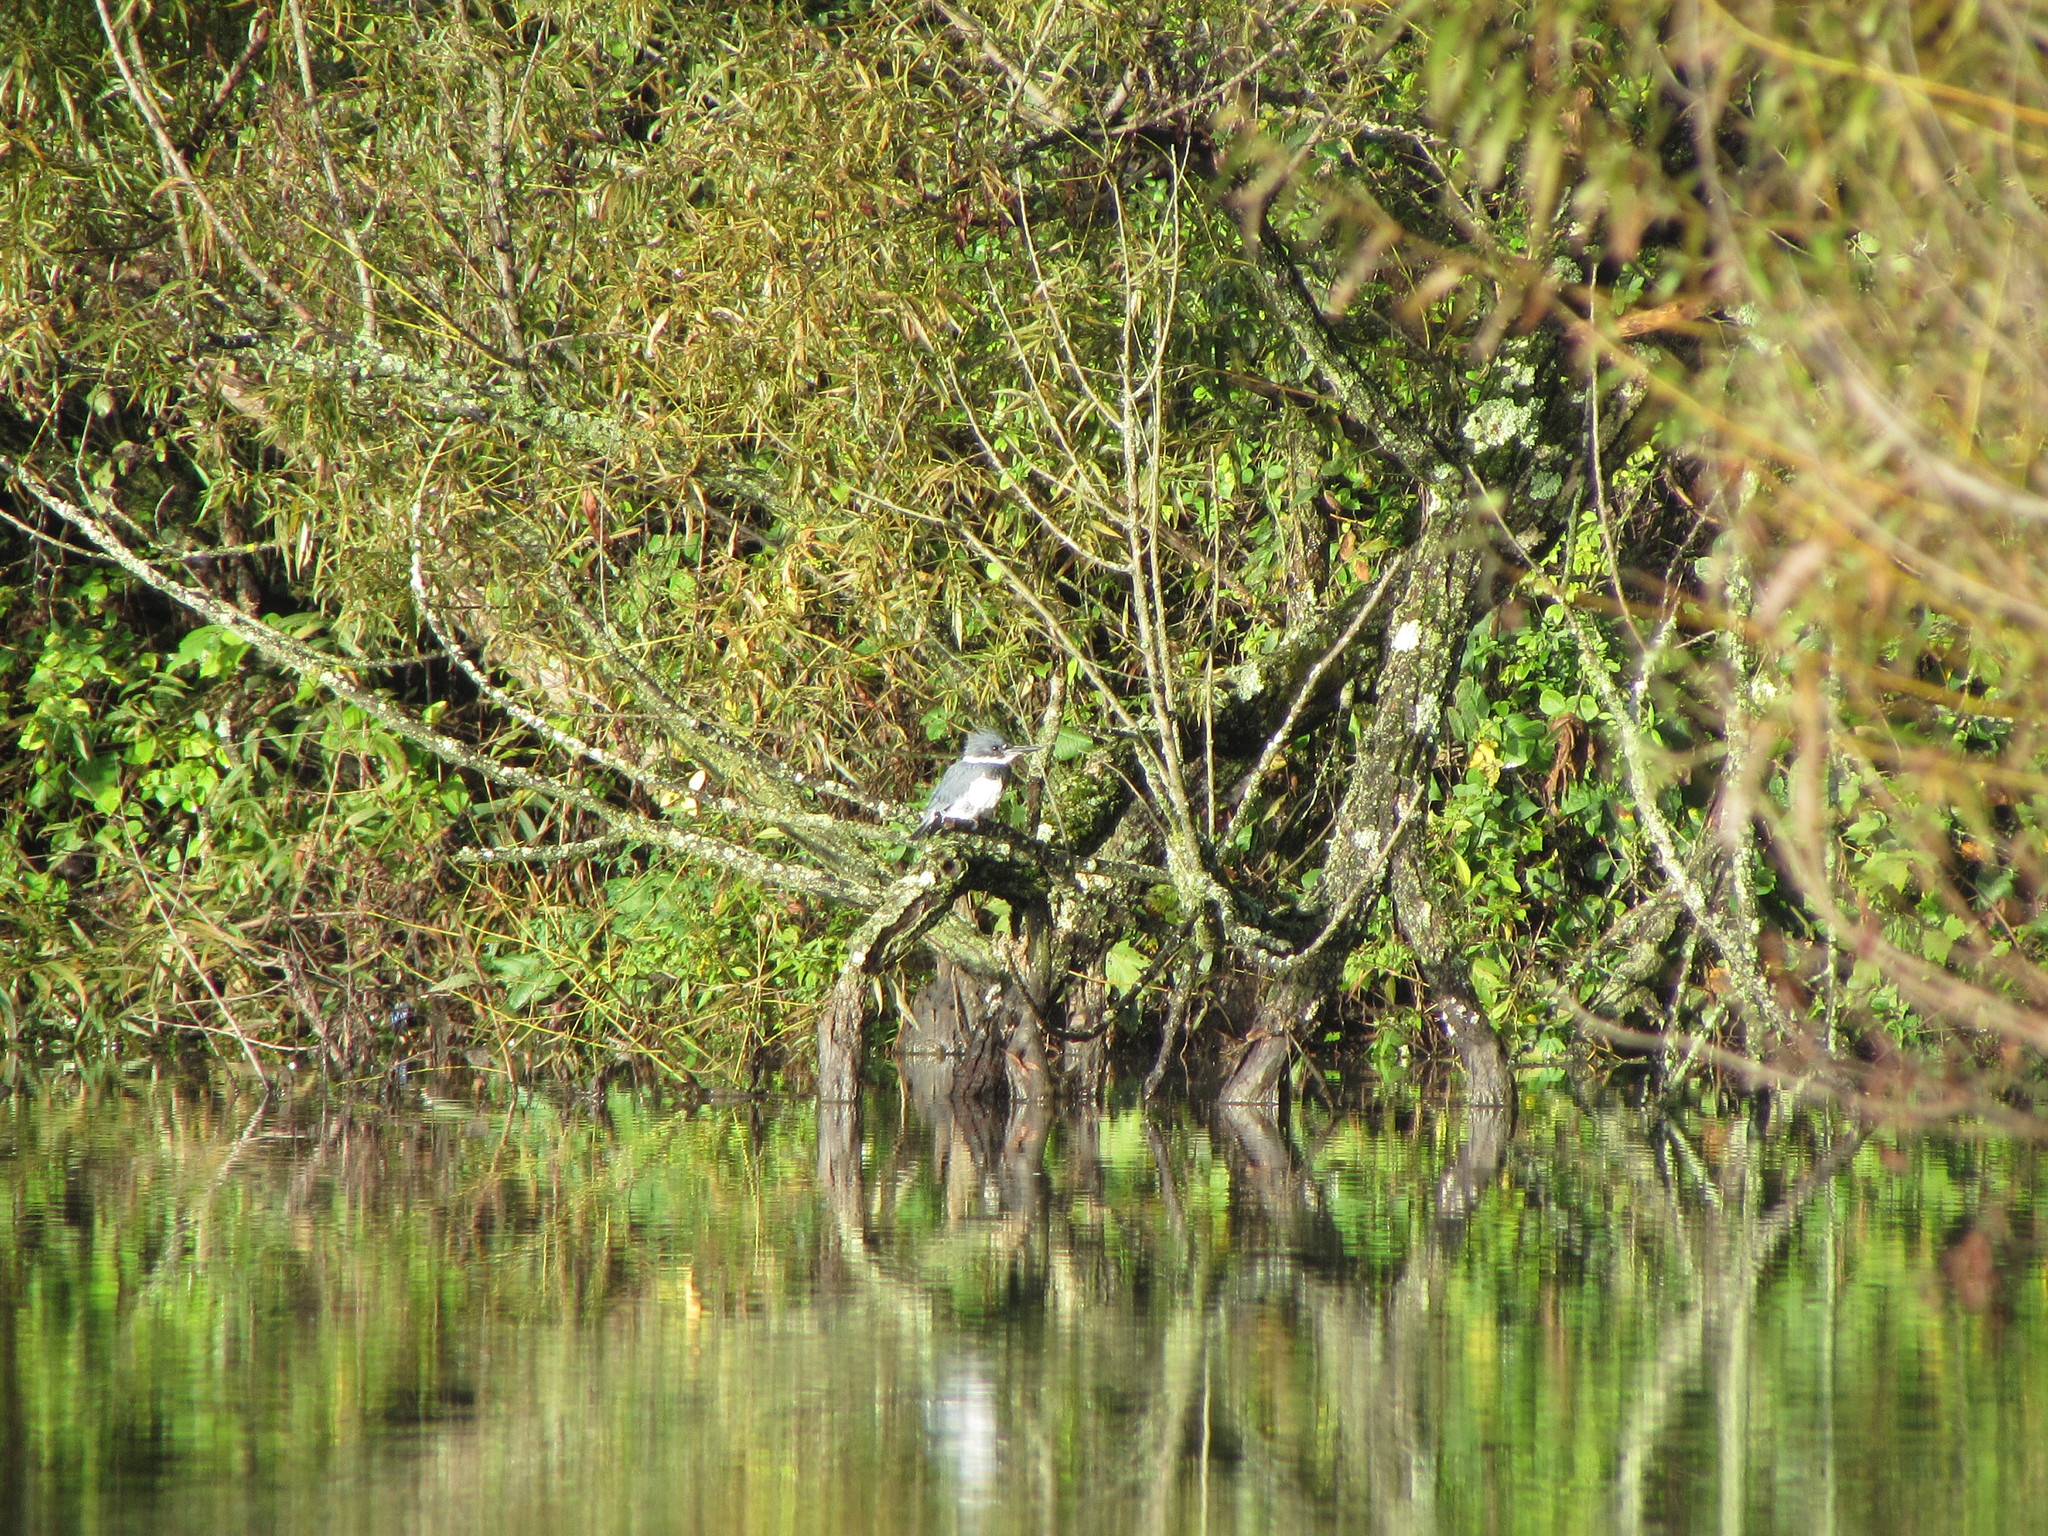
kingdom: Animalia
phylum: Chordata
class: Aves
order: Coraciiformes
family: Alcedinidae
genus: Megaceryle
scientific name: Megaceryle alcyon
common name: Belted kingfisher
